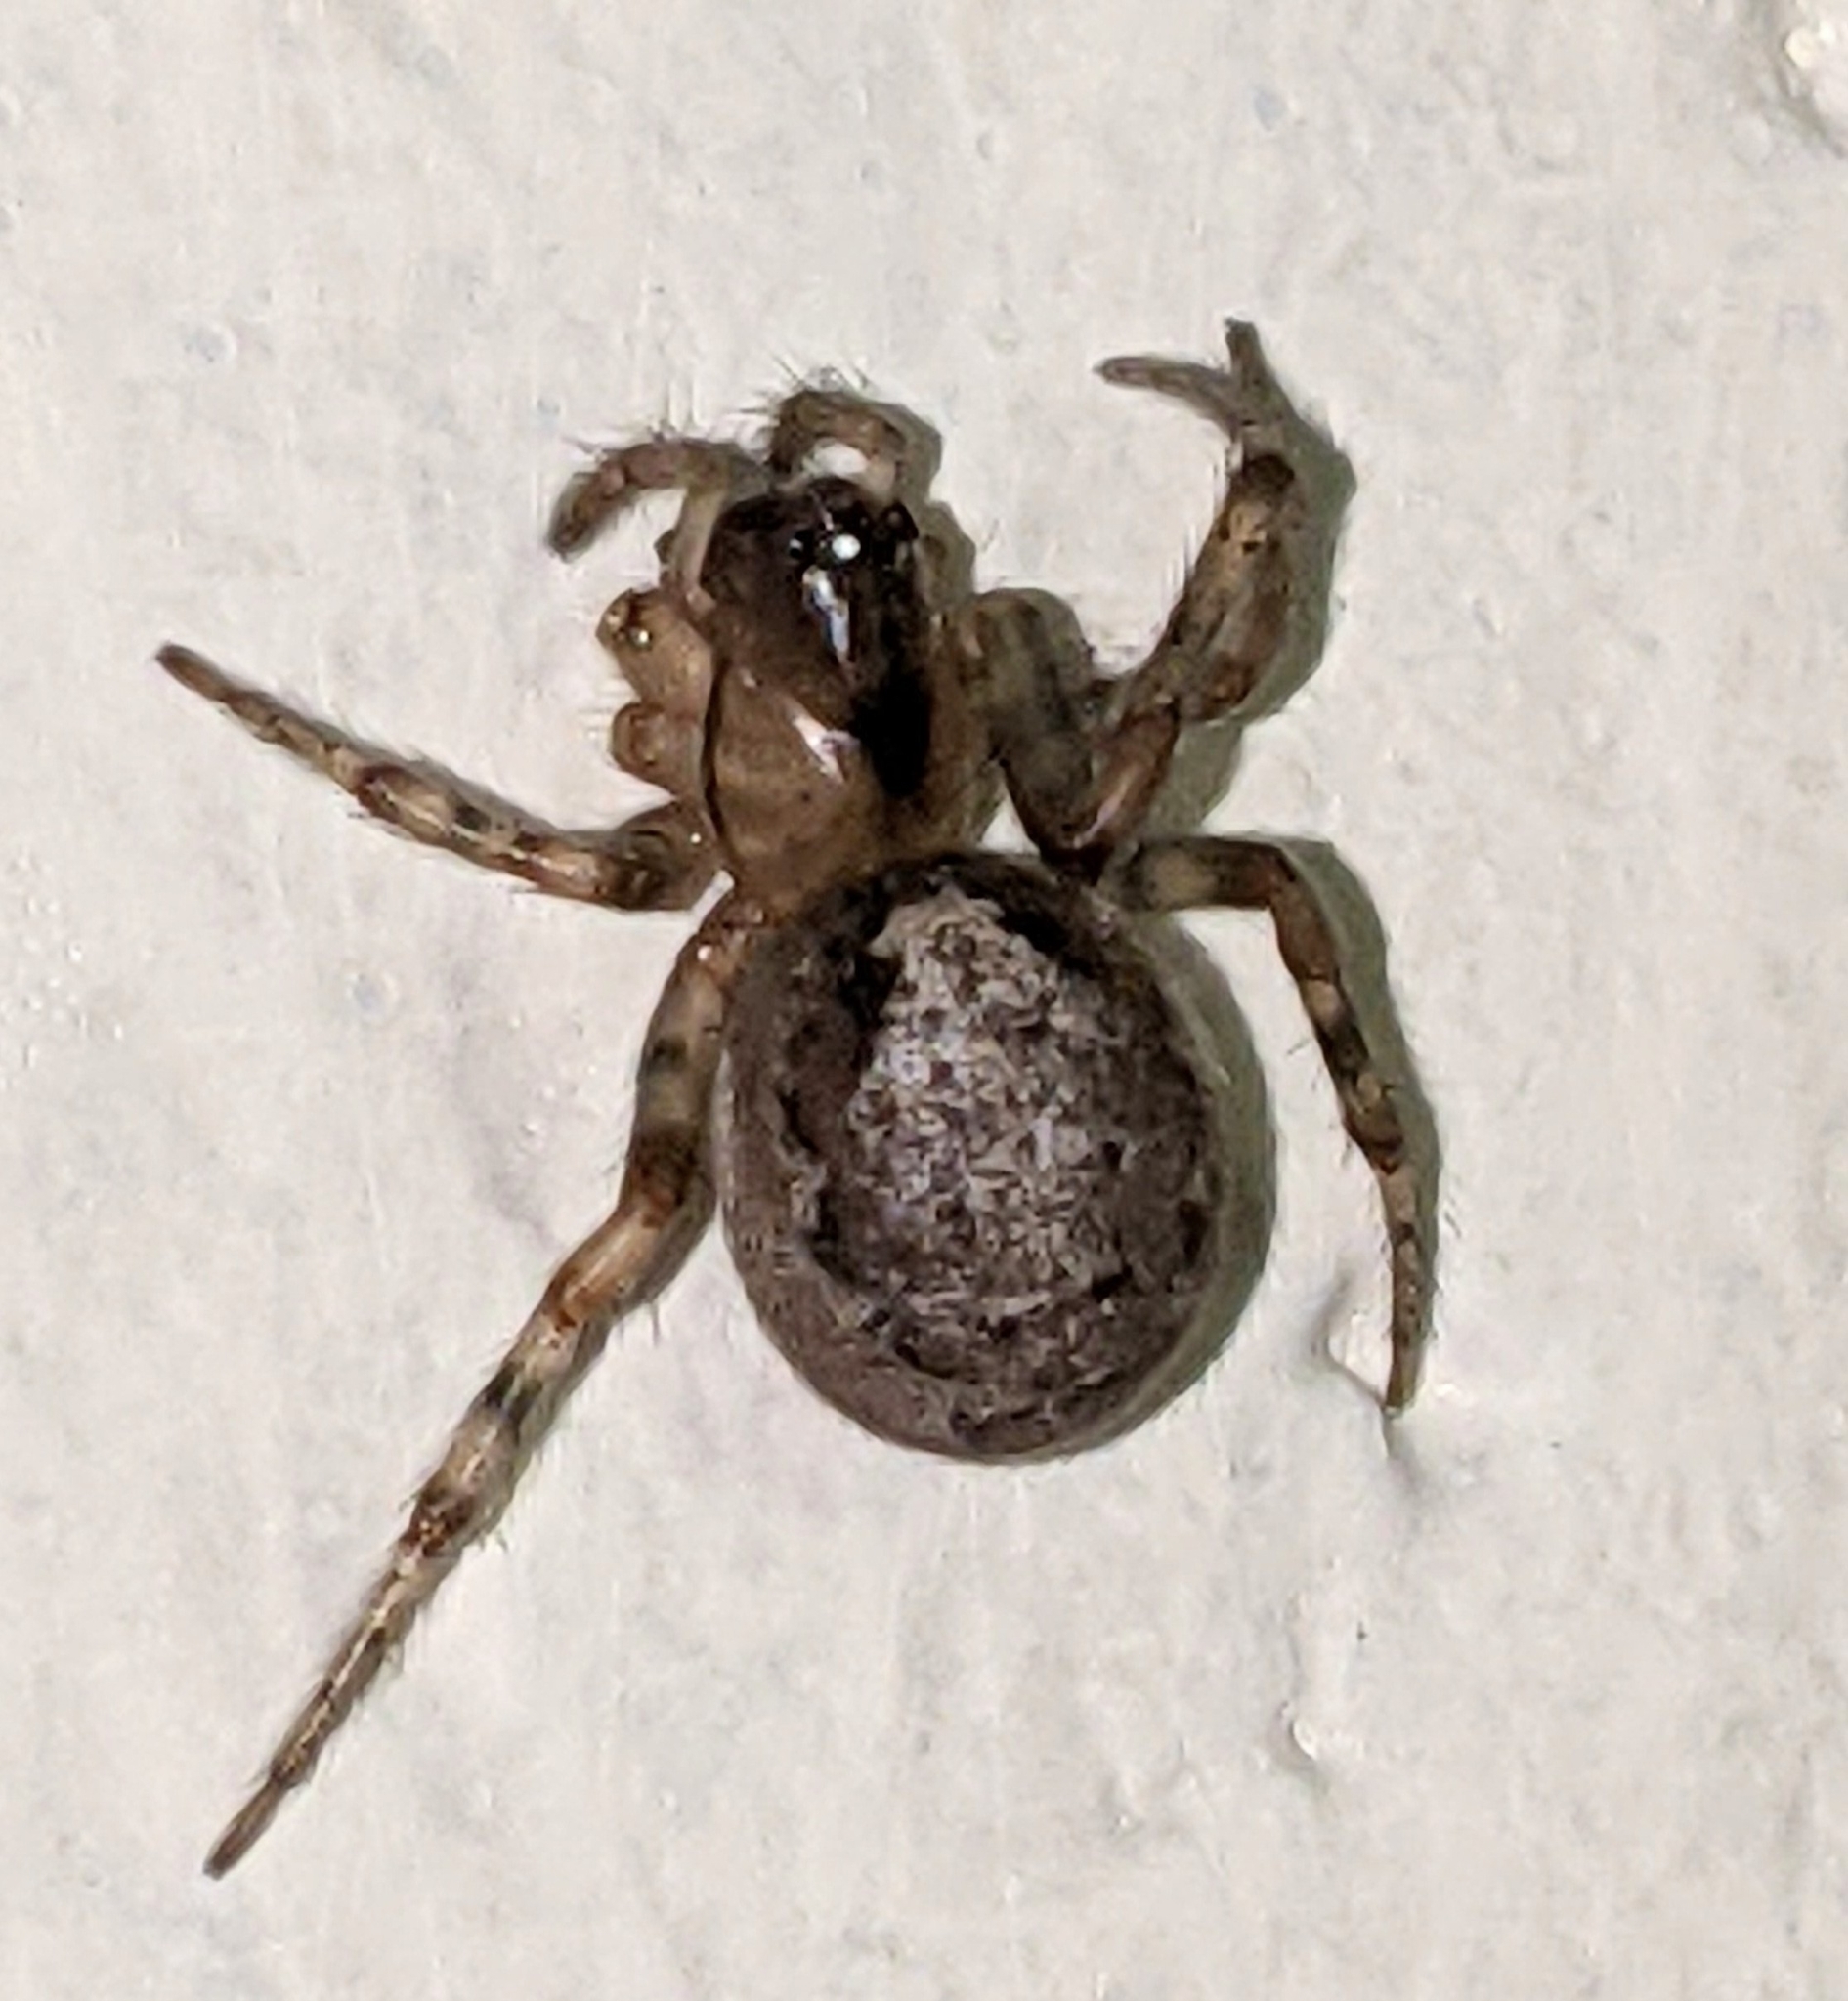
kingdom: Animalia
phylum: Arthropoda
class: Arachnida
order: Araneae
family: Araneidae
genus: Zygiella
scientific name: Zygiella x-notata
